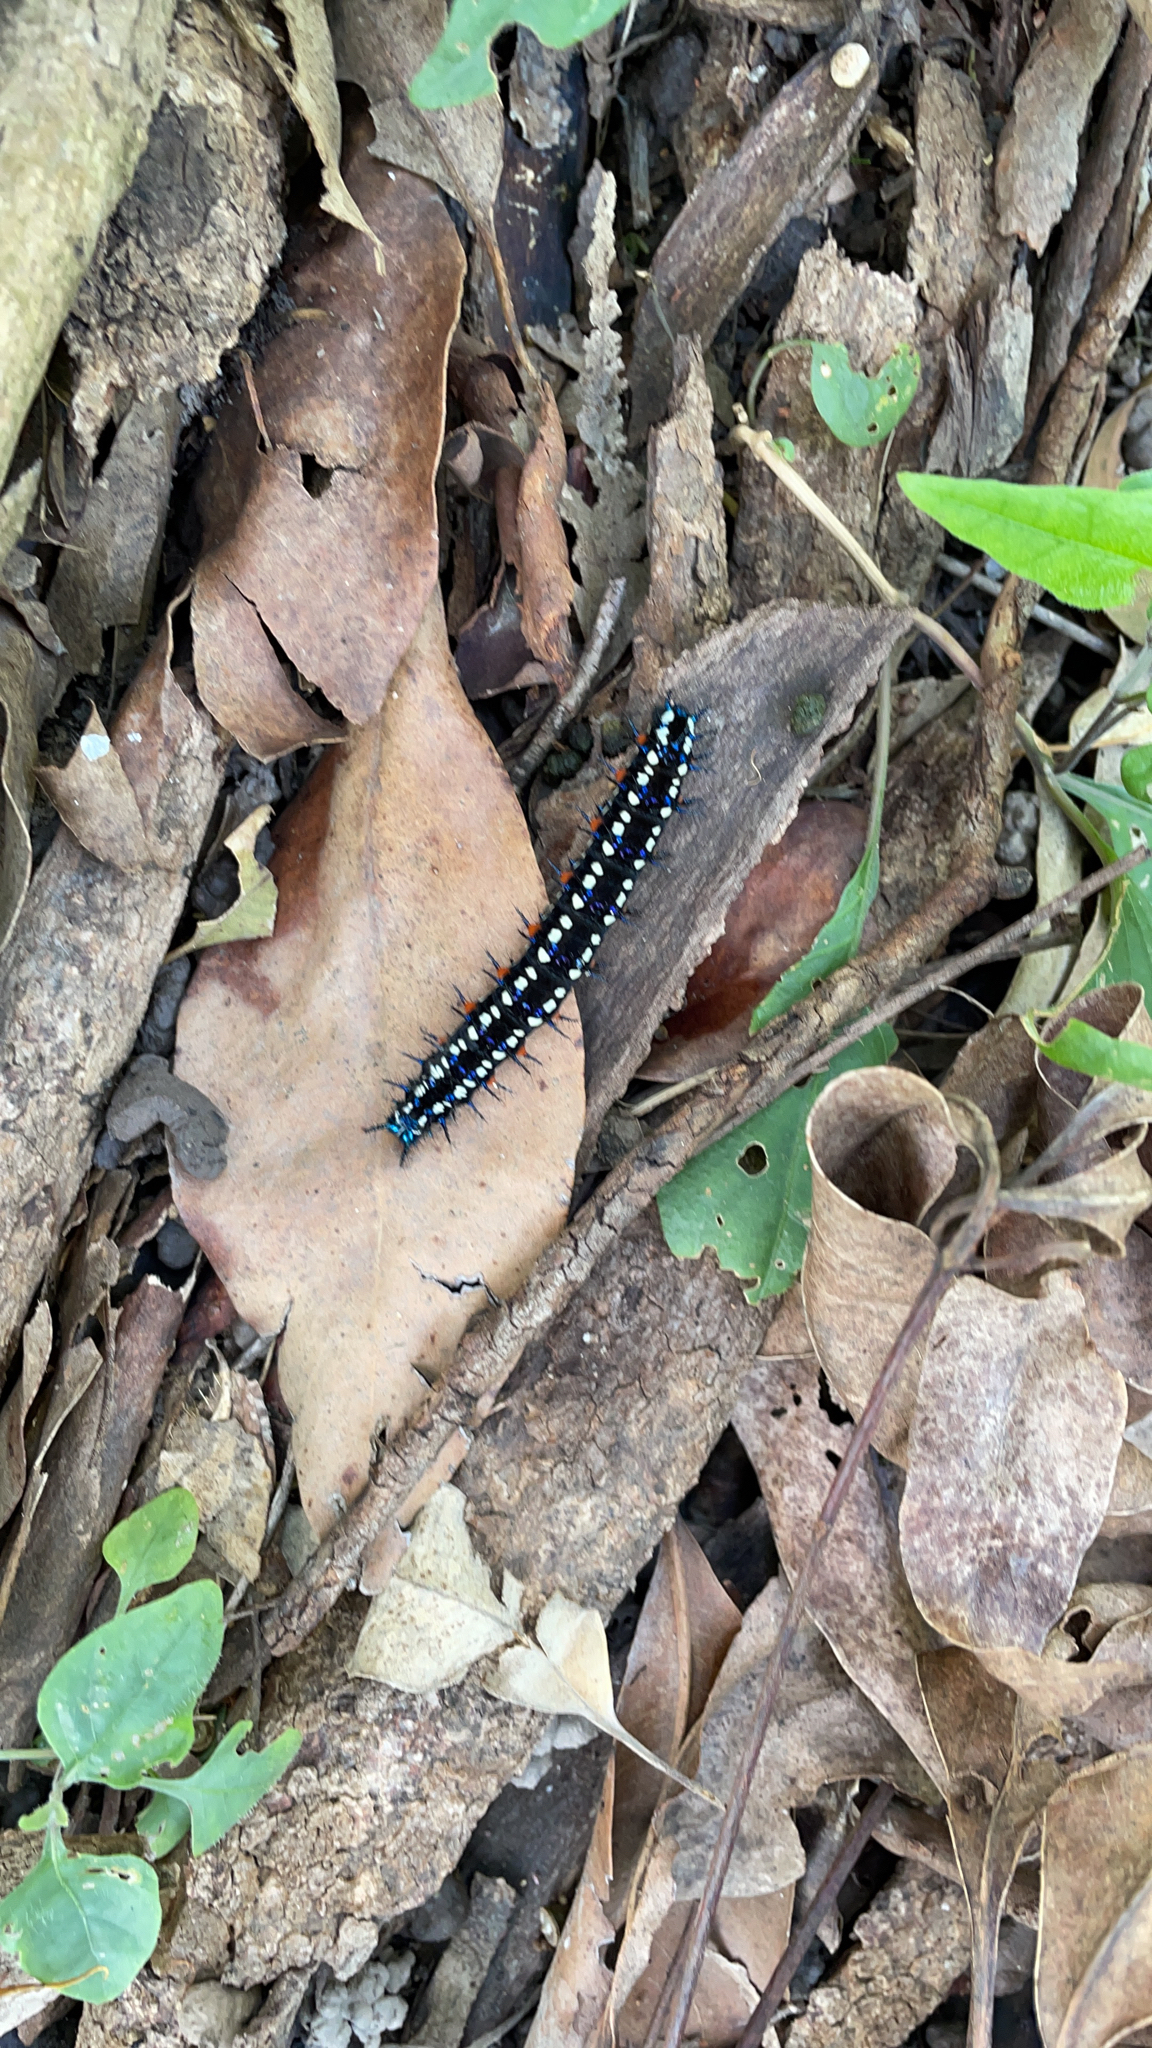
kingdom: Animalia
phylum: Arthropoda
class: Insecta
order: Lepidoptera
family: Nymphalidae
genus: Doleschallia
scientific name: Doleschallia bisaltide
